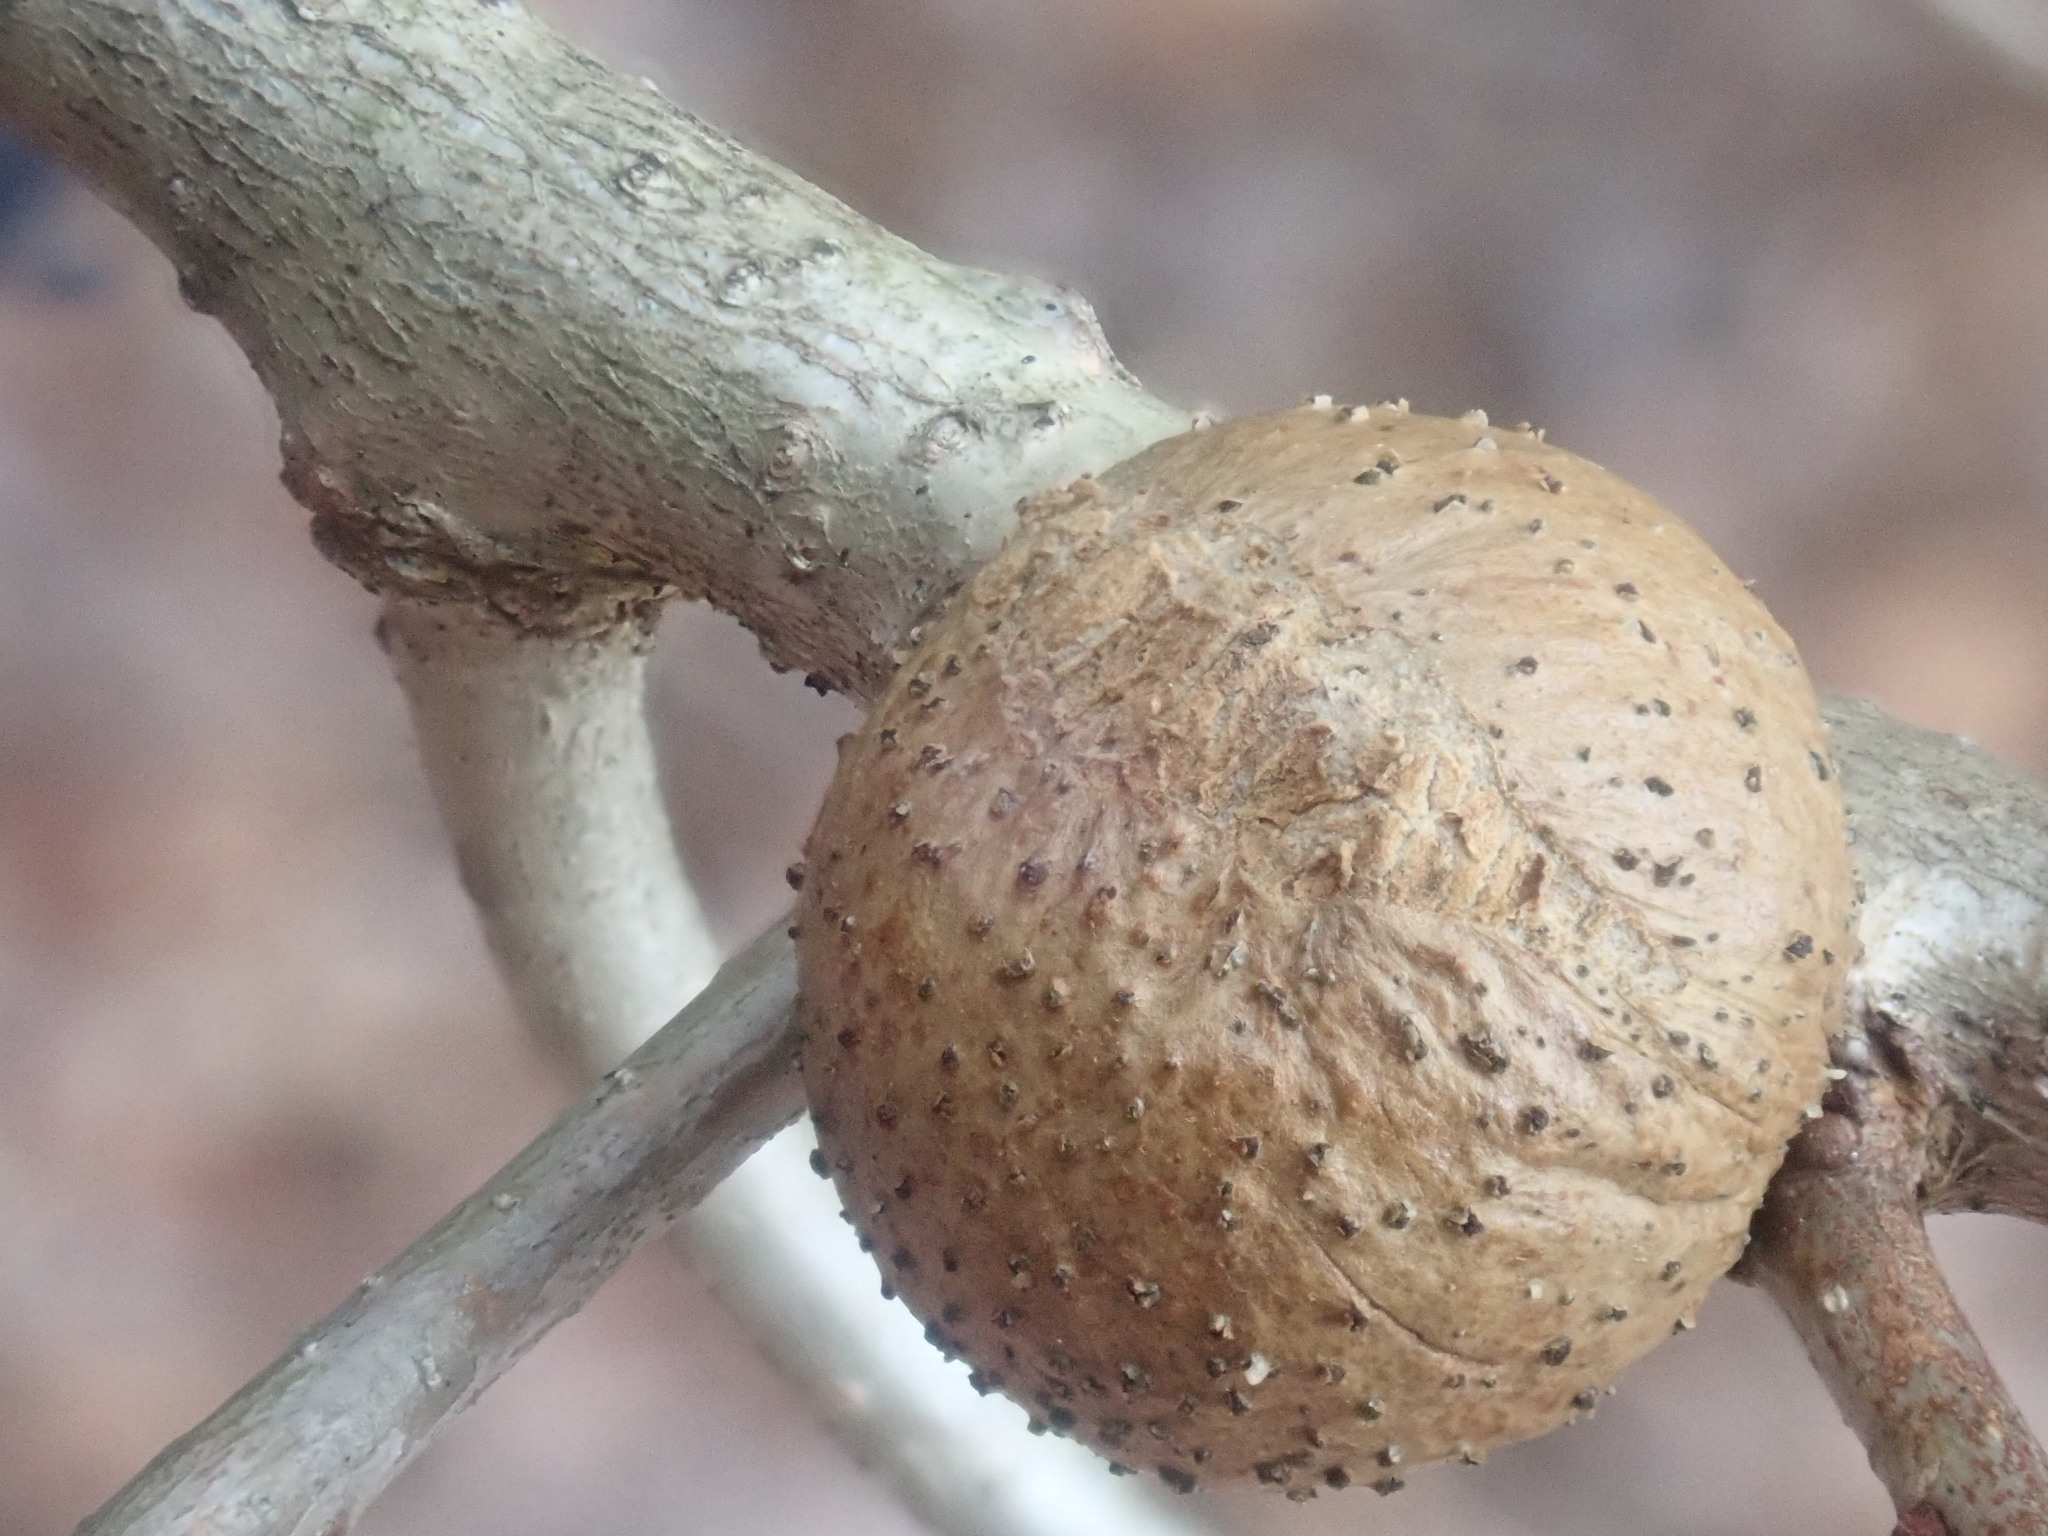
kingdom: Animalia
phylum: Arthropoda
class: Insecta
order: Hymenoptera
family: Cynipidae
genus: Disholcaspis
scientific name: Disholcaspis quercusglobulus
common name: Round bullet gall wasp
